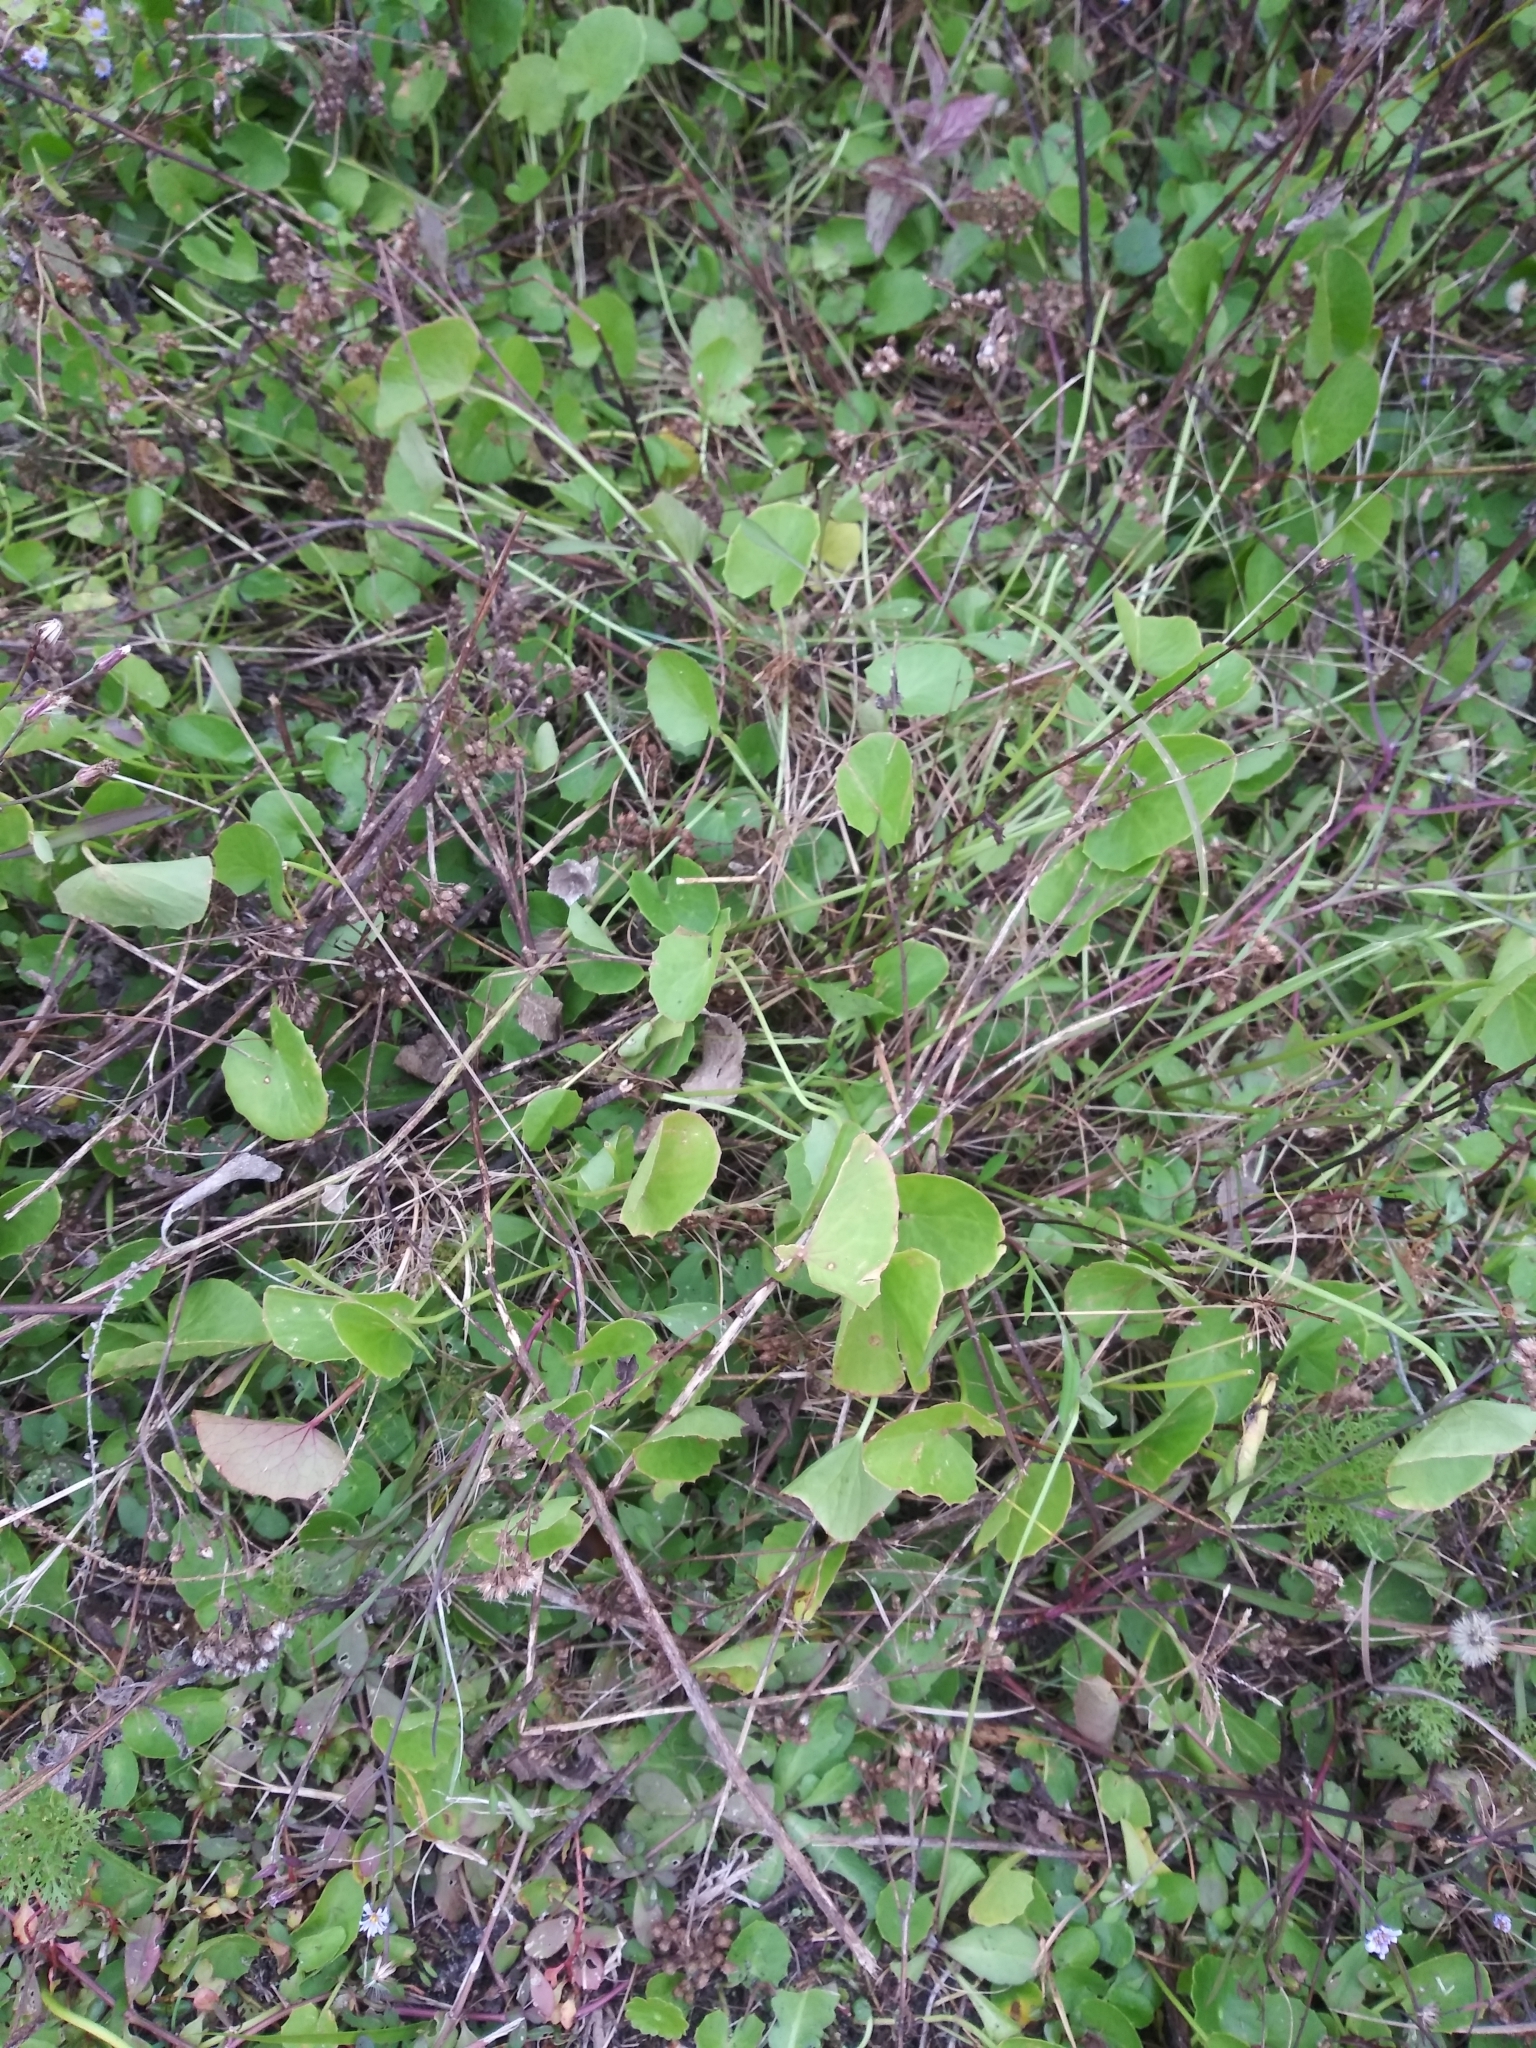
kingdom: Plantae
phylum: Tracheophyta
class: Magnoliopsida
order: Apiales
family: Apiaceae
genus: Centella
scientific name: Centella erecta
